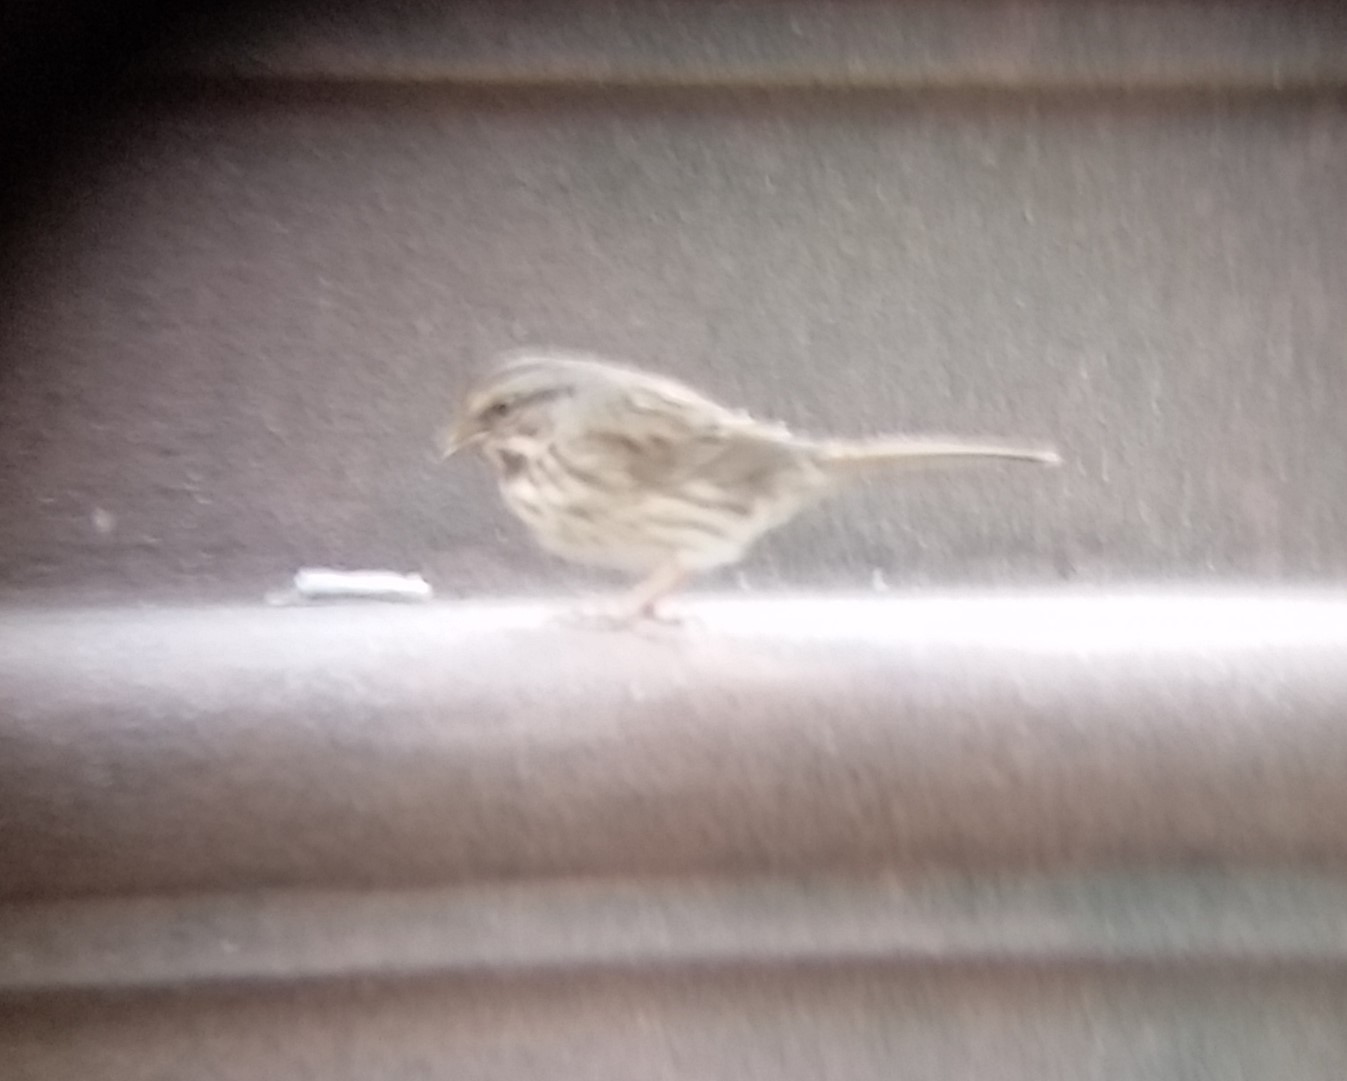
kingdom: Animalia
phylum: Chordata
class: Aves
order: Passeriformes
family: Passerellidae
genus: Melospiza
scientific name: Melospiza melodia
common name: Song sparrow
